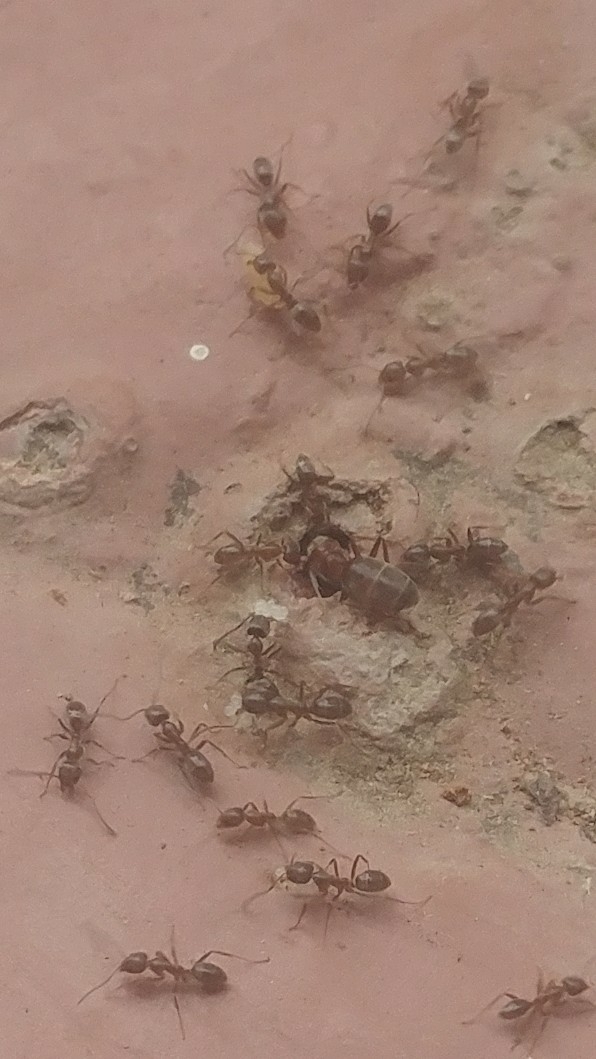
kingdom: Animalia
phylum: Arthropoda
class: Insecta
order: Hymenoptera
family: Formicidae
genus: Linepithema
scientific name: Linepithema humile
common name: Argentine ant
